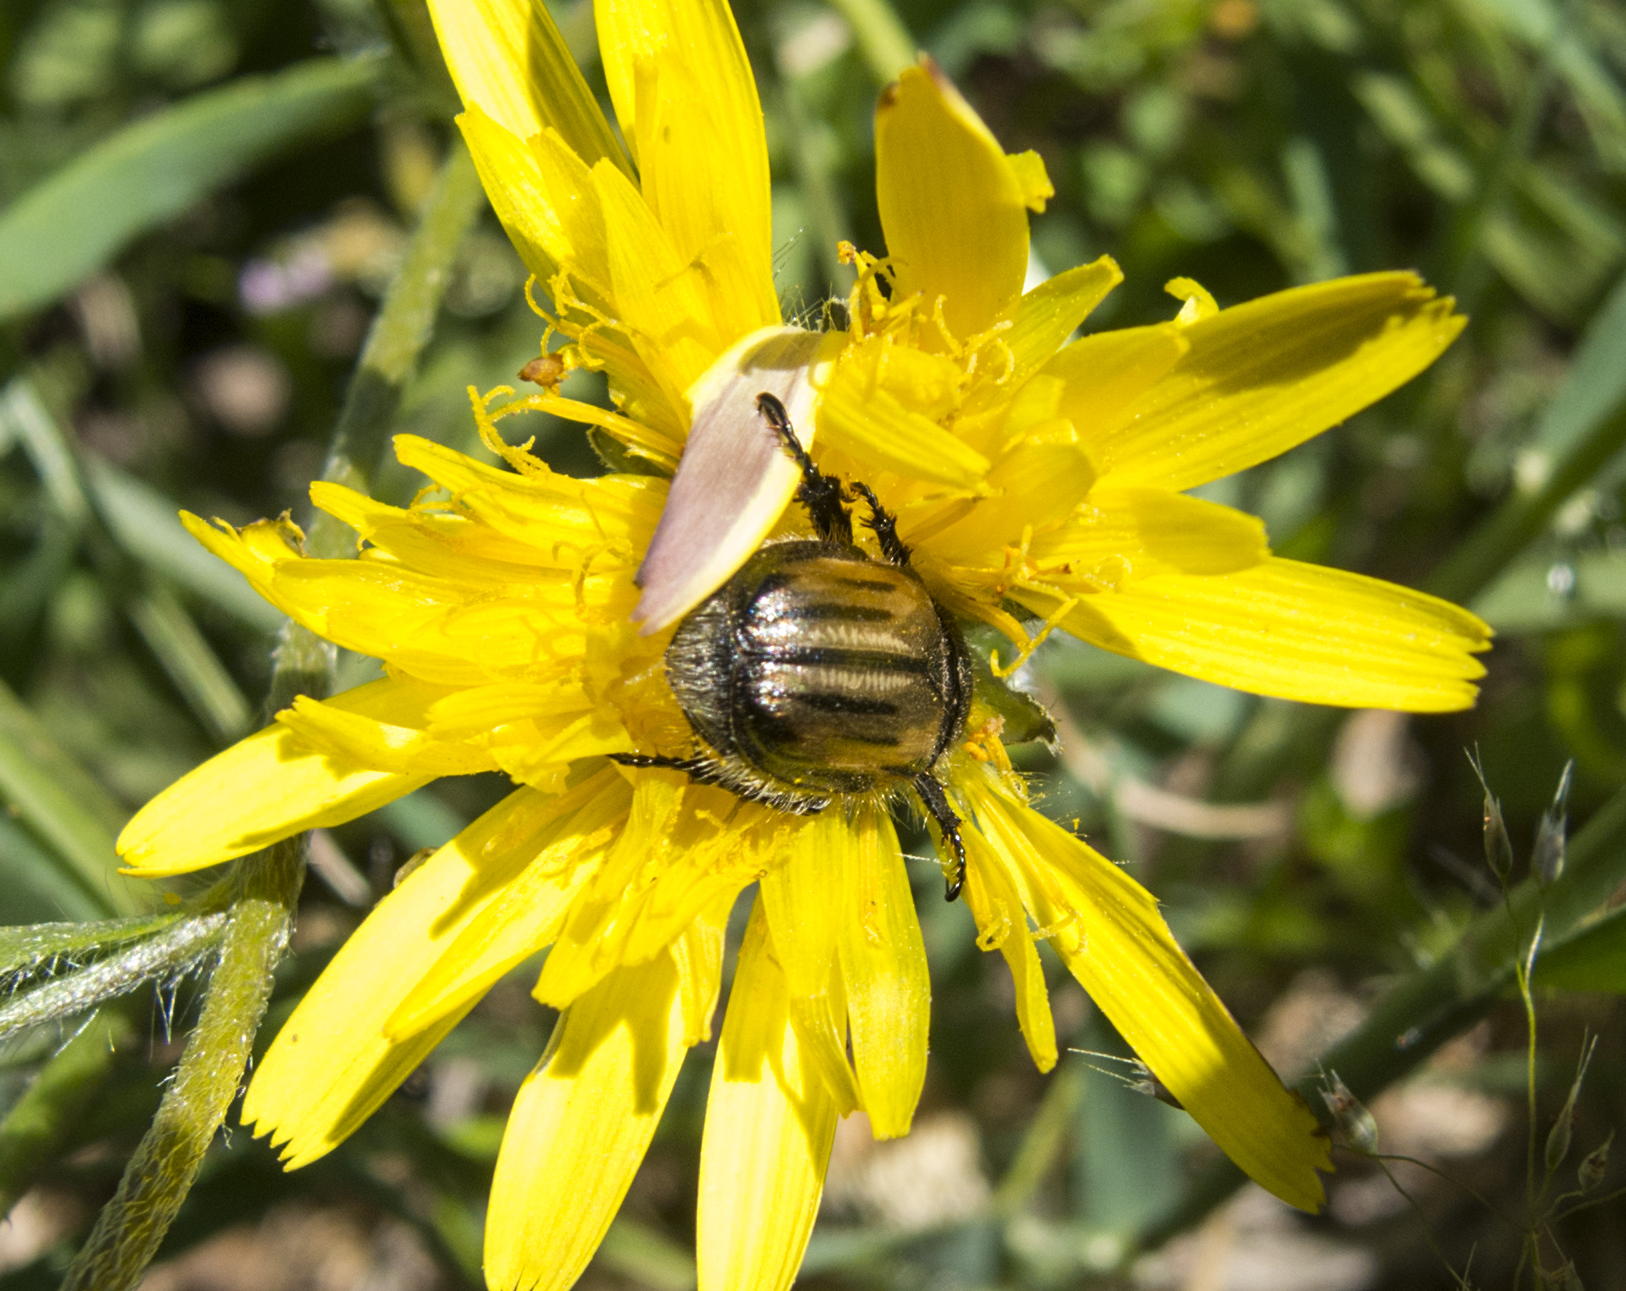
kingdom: Animalia
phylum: Arthropoda
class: Insecta
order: Coleoptera
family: Glaphyridae
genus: Eulasia
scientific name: Eulasia pareyssei
